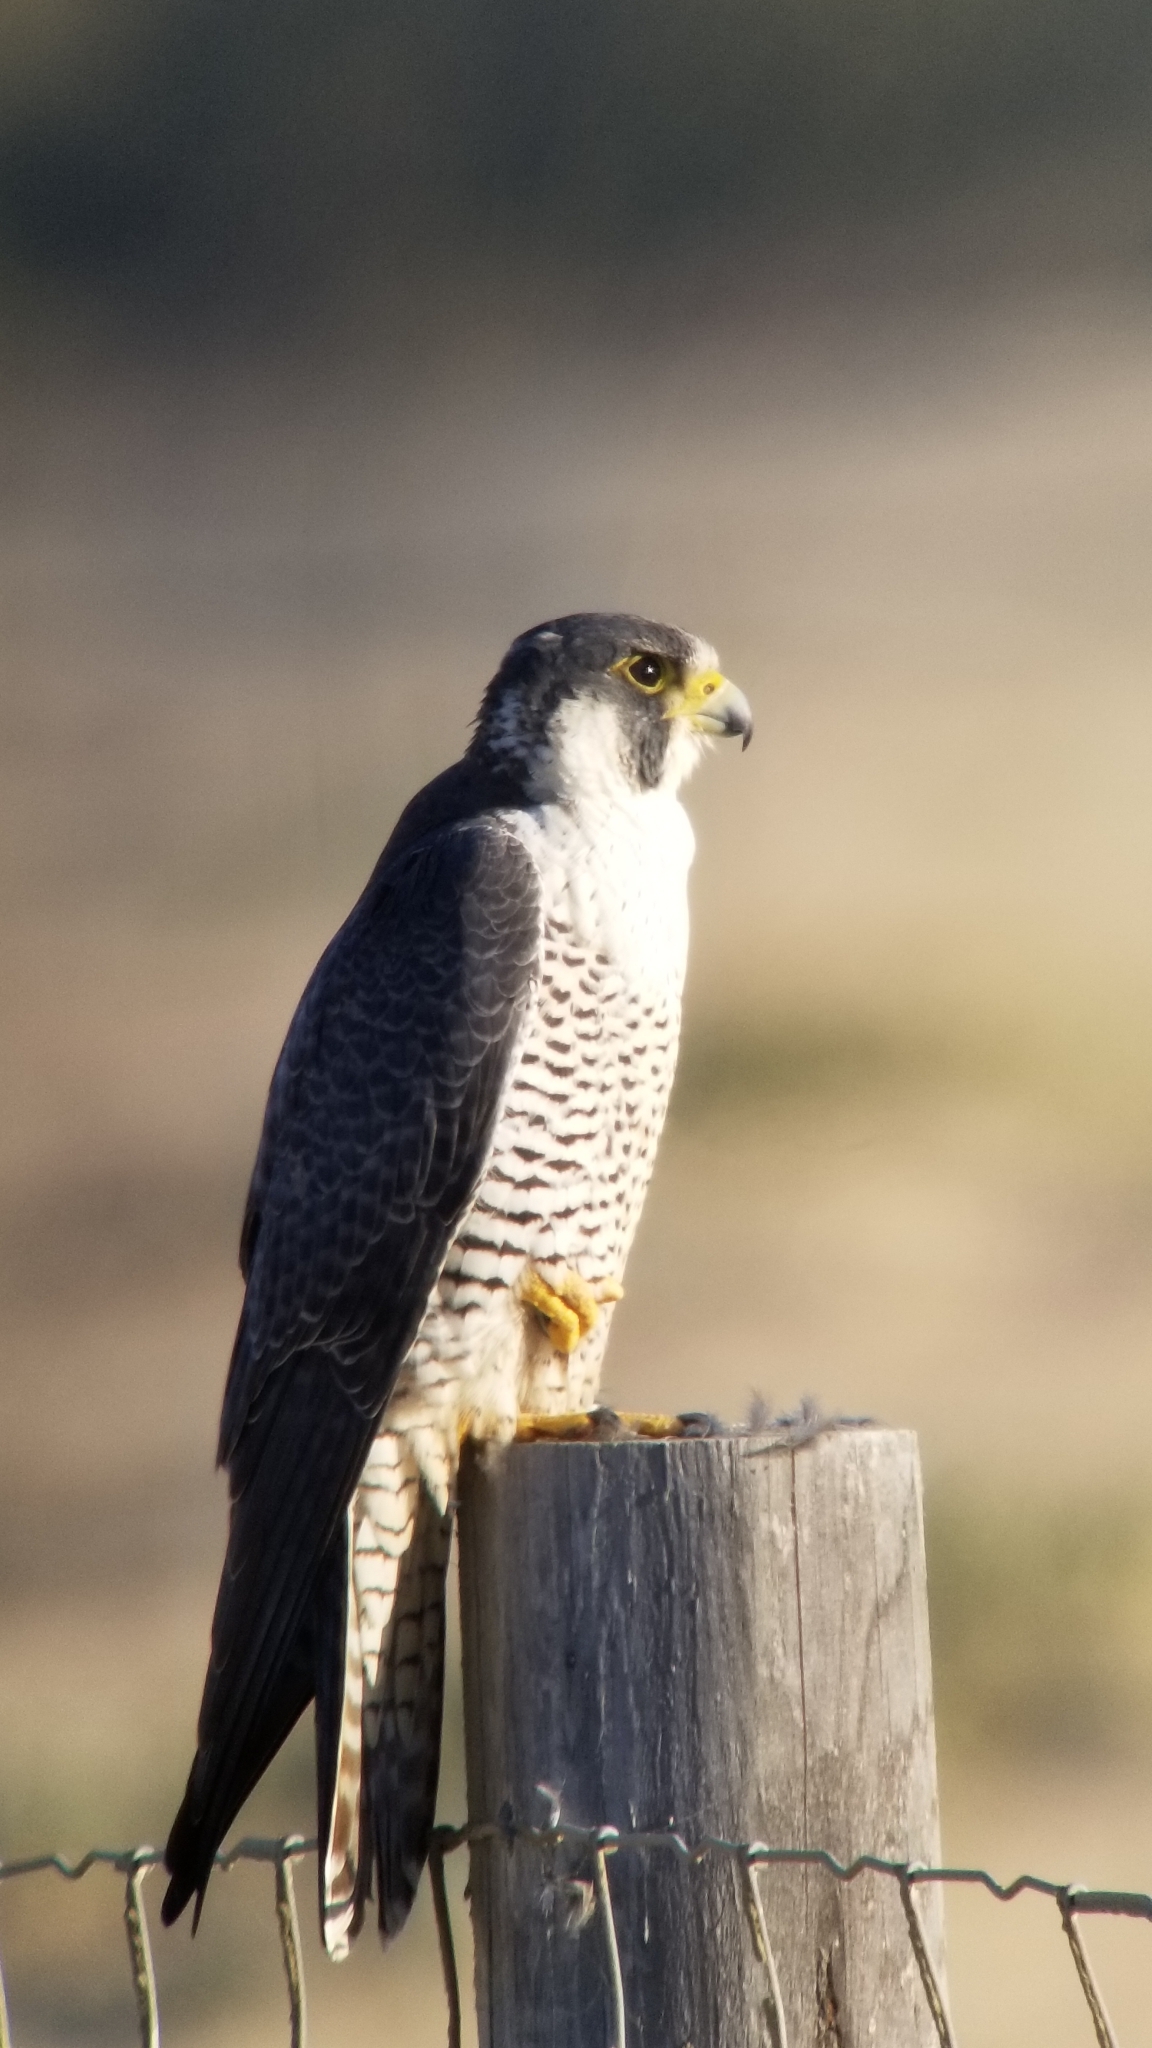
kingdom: Animalia
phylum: Chordata
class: Aves
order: Falconiformes
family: Falconidae
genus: Falco
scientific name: Falco peregrinus
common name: Peregrine falcon
